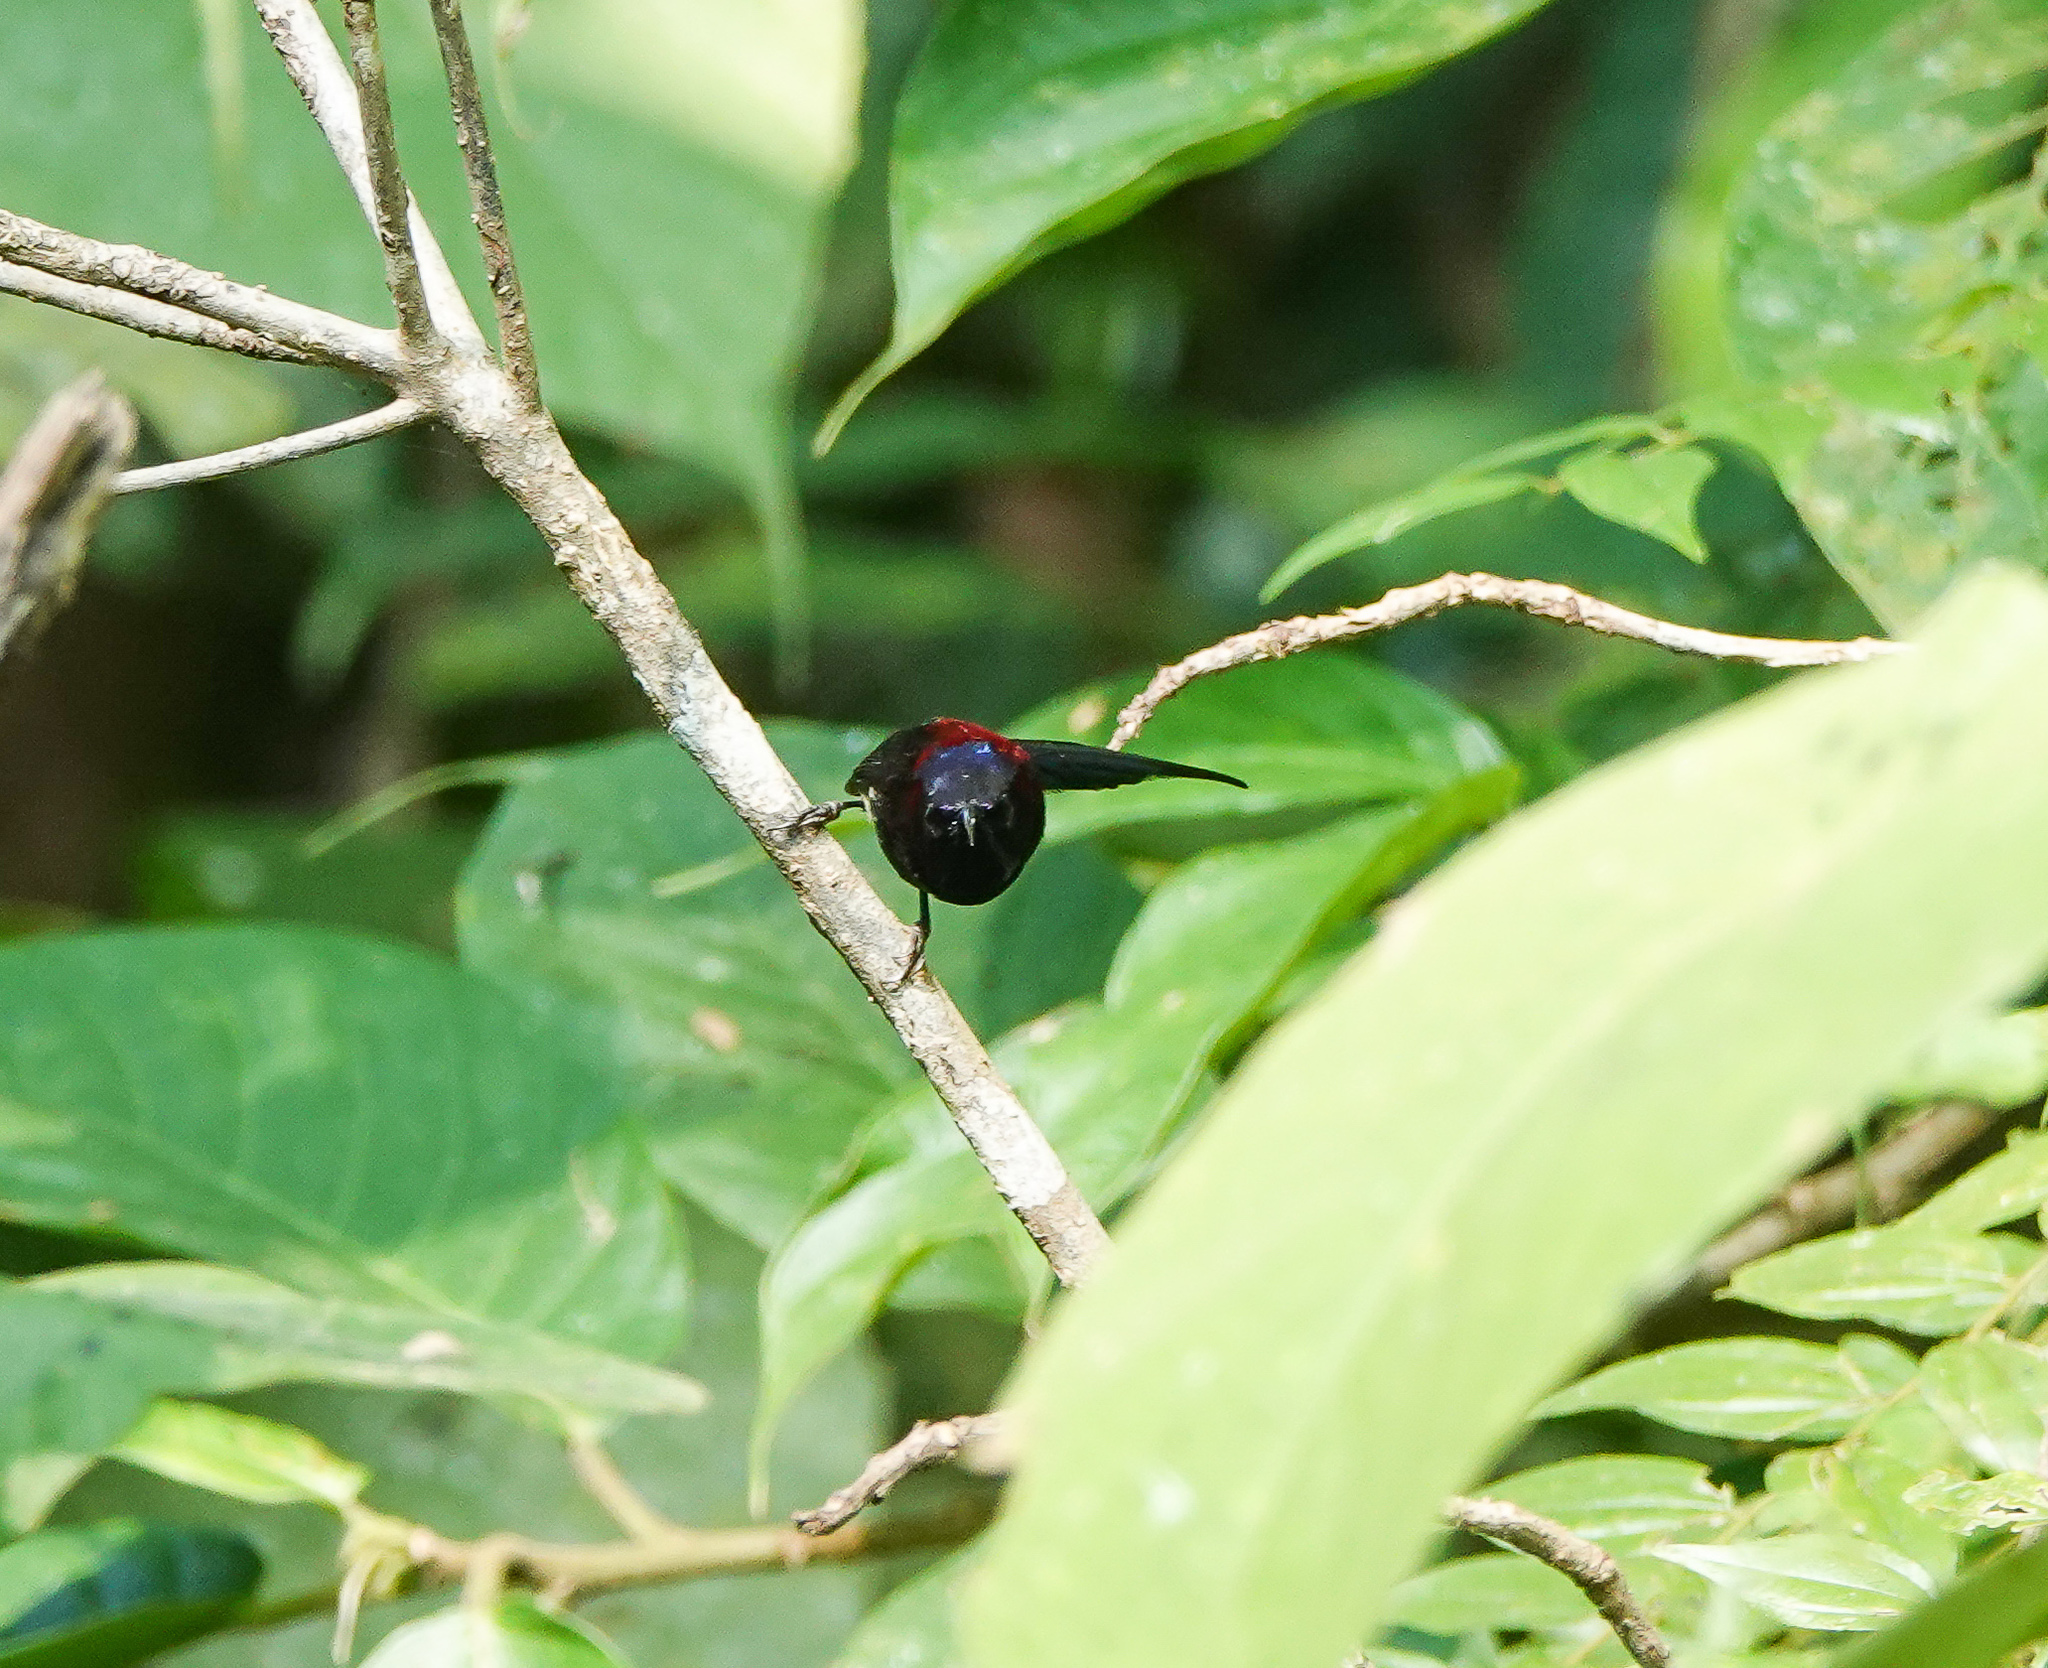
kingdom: Animalia
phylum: Chordata
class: Aves
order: Passeriformes
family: Nectariniidae
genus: Aethopyga
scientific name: Aethopyga saturata
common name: Black-throated sunbird
